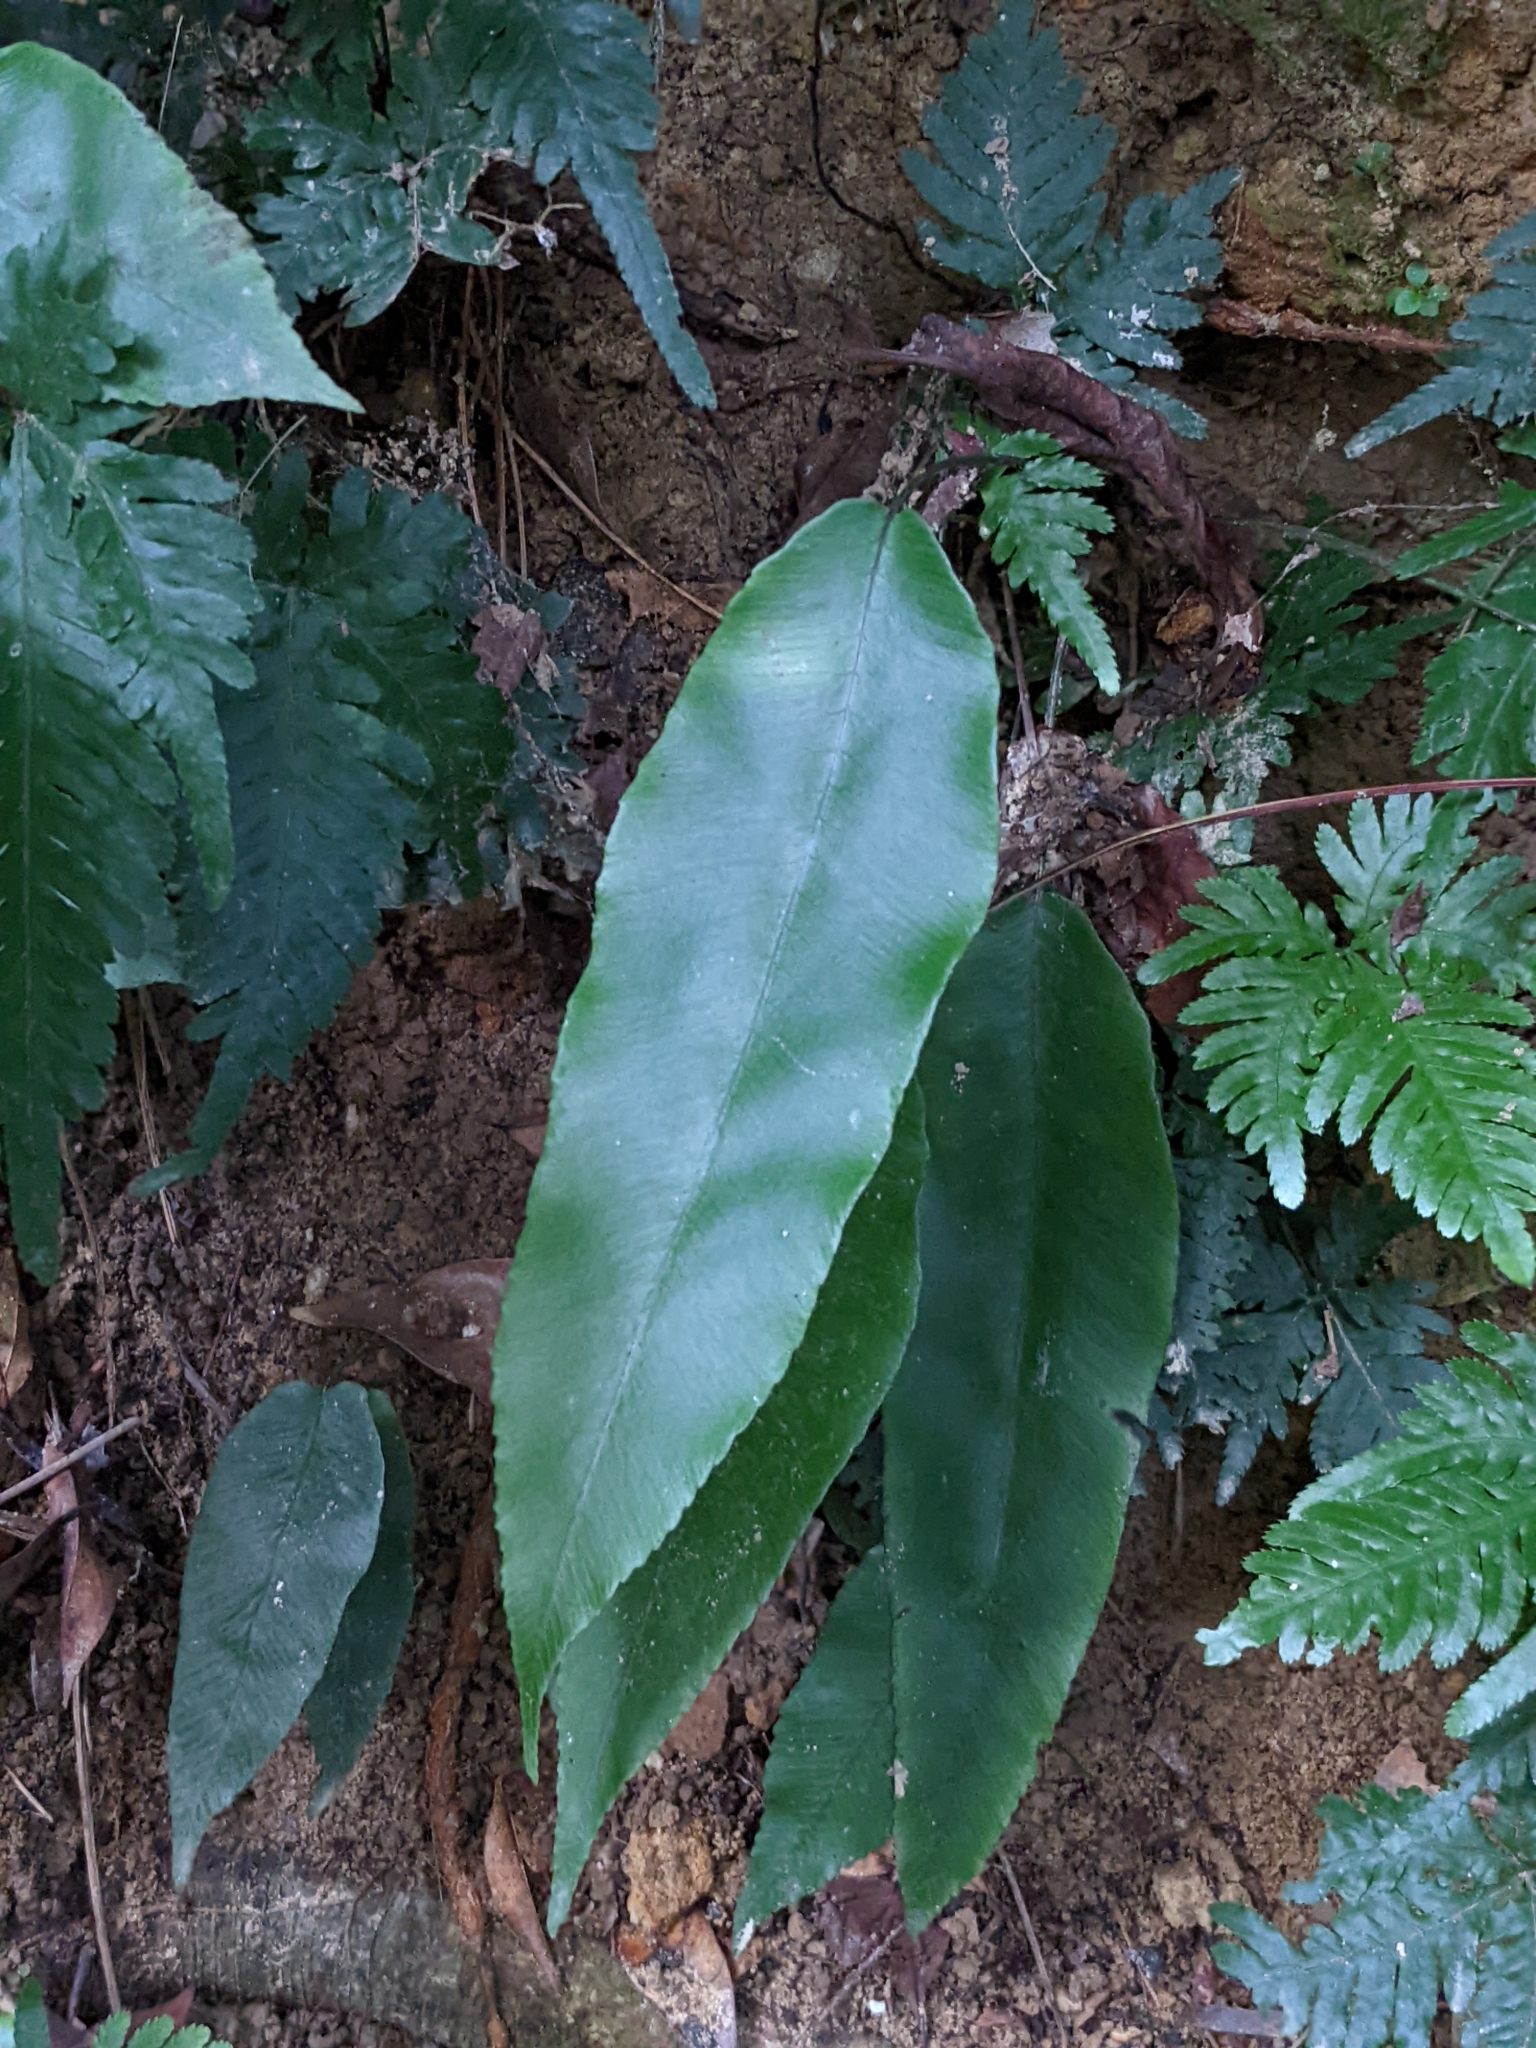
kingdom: Plantae
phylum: Tracheophyta
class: Polypodiopsida
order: Polypodiales
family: Athyriaceae
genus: Diplazium
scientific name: Diplazium lineolatum
